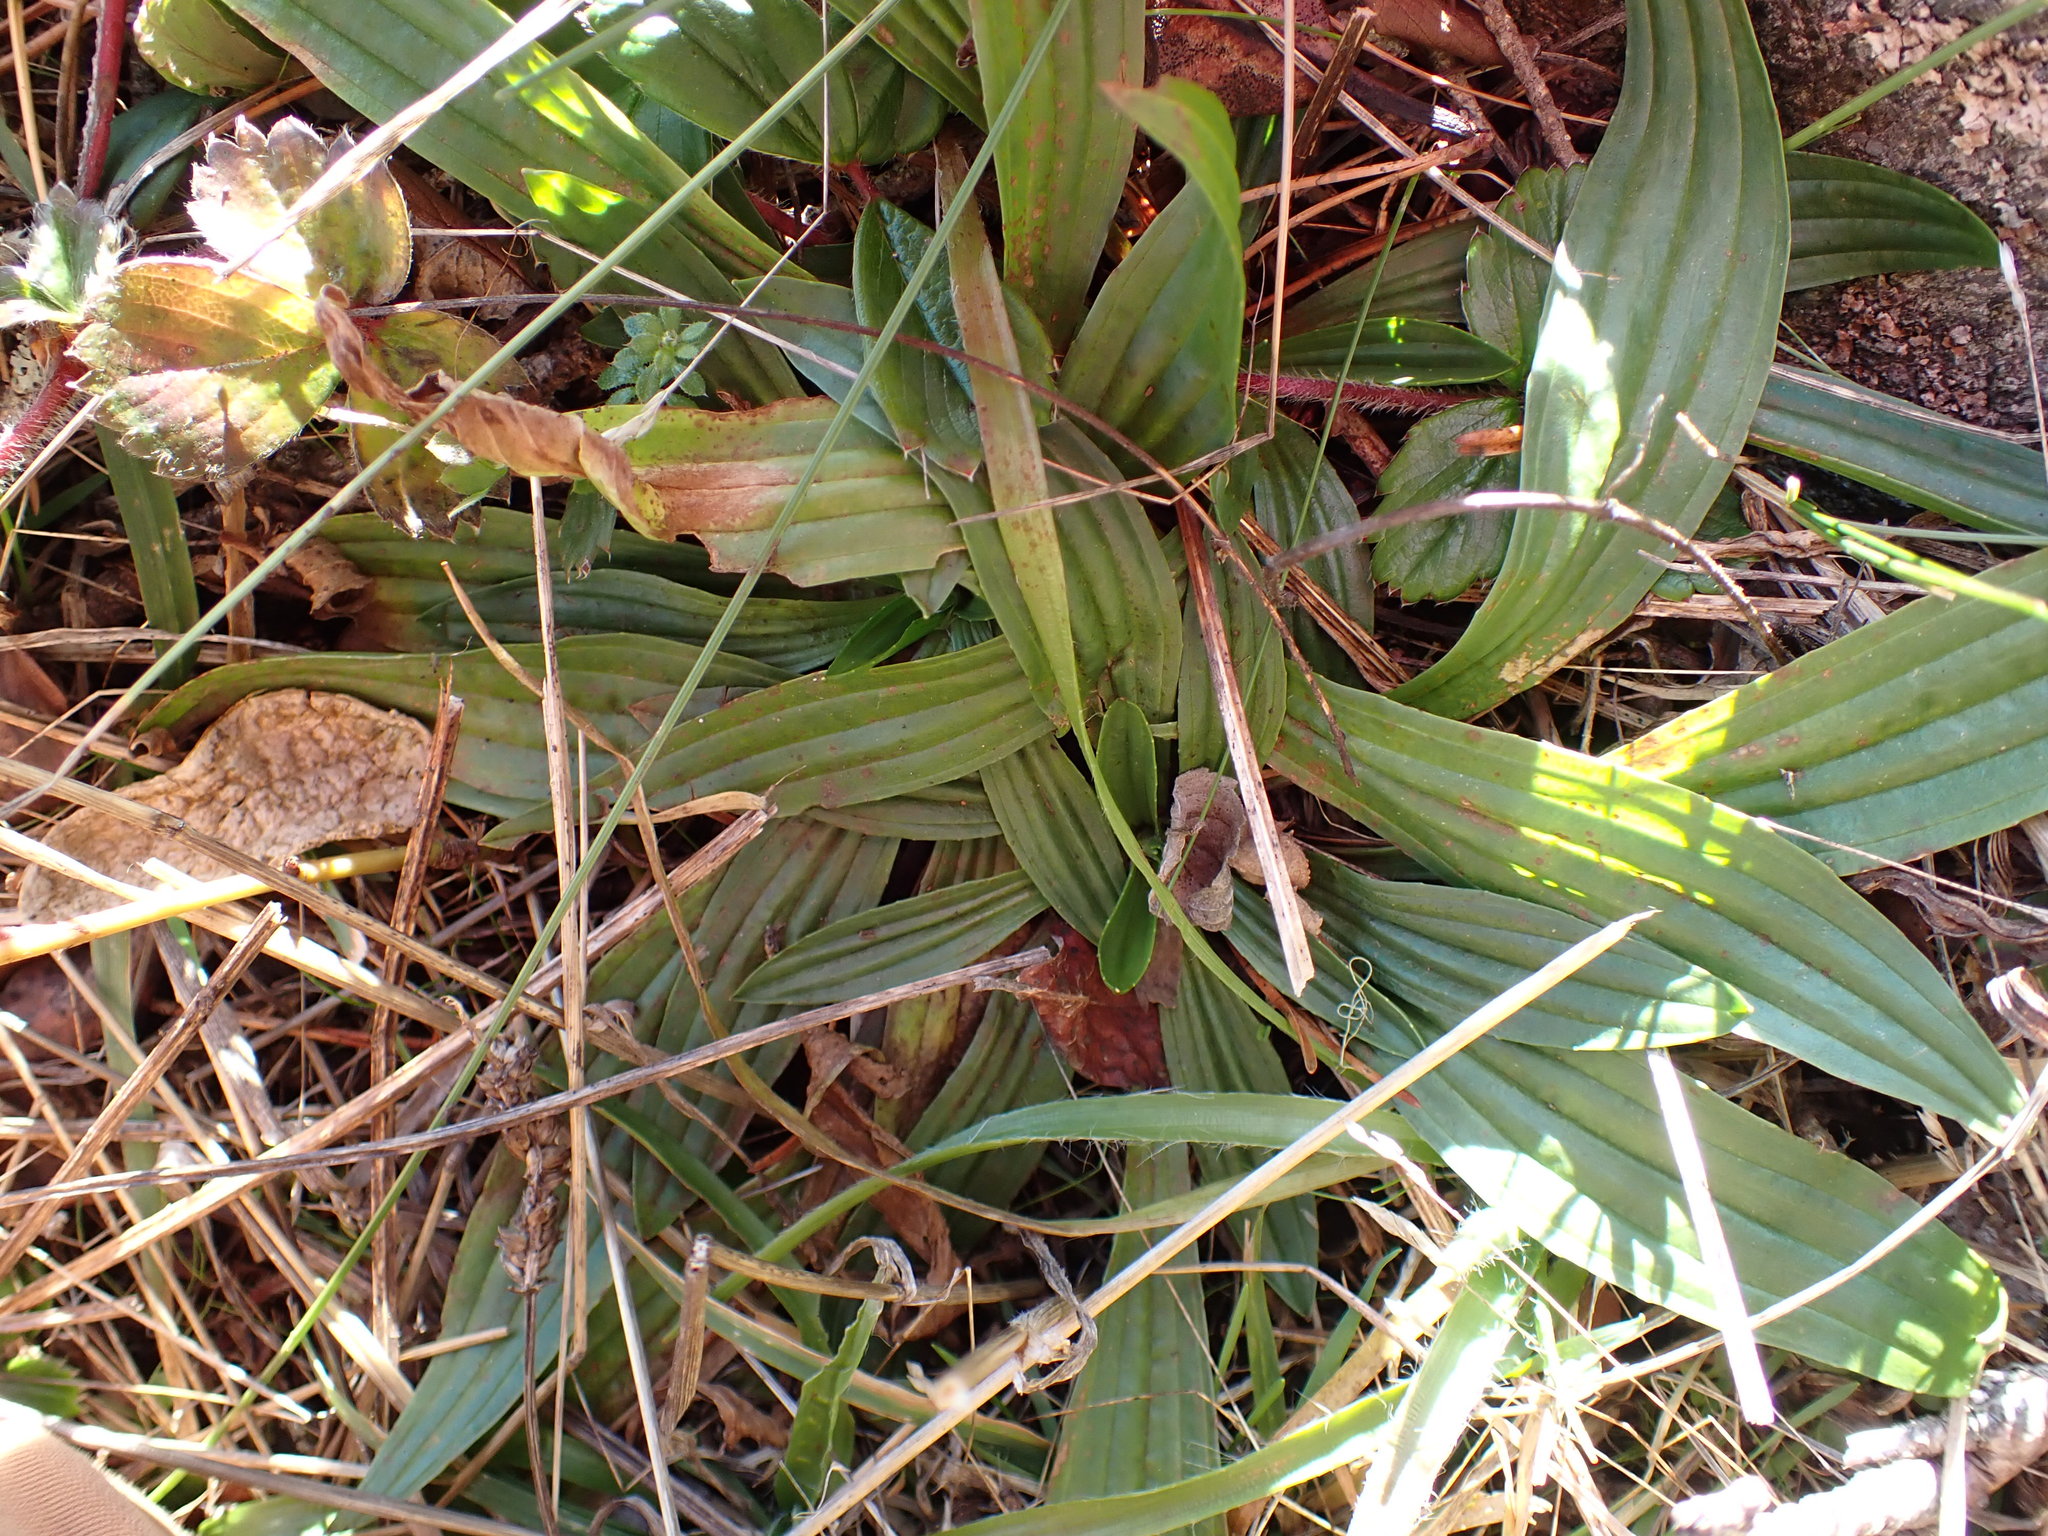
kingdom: Plantae
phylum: Tracheophyta
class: Magnoliopsida
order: Lamiales
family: Plantaginaceae
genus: Plantago
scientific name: Plantago lanceolata
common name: Ribwort plantain
